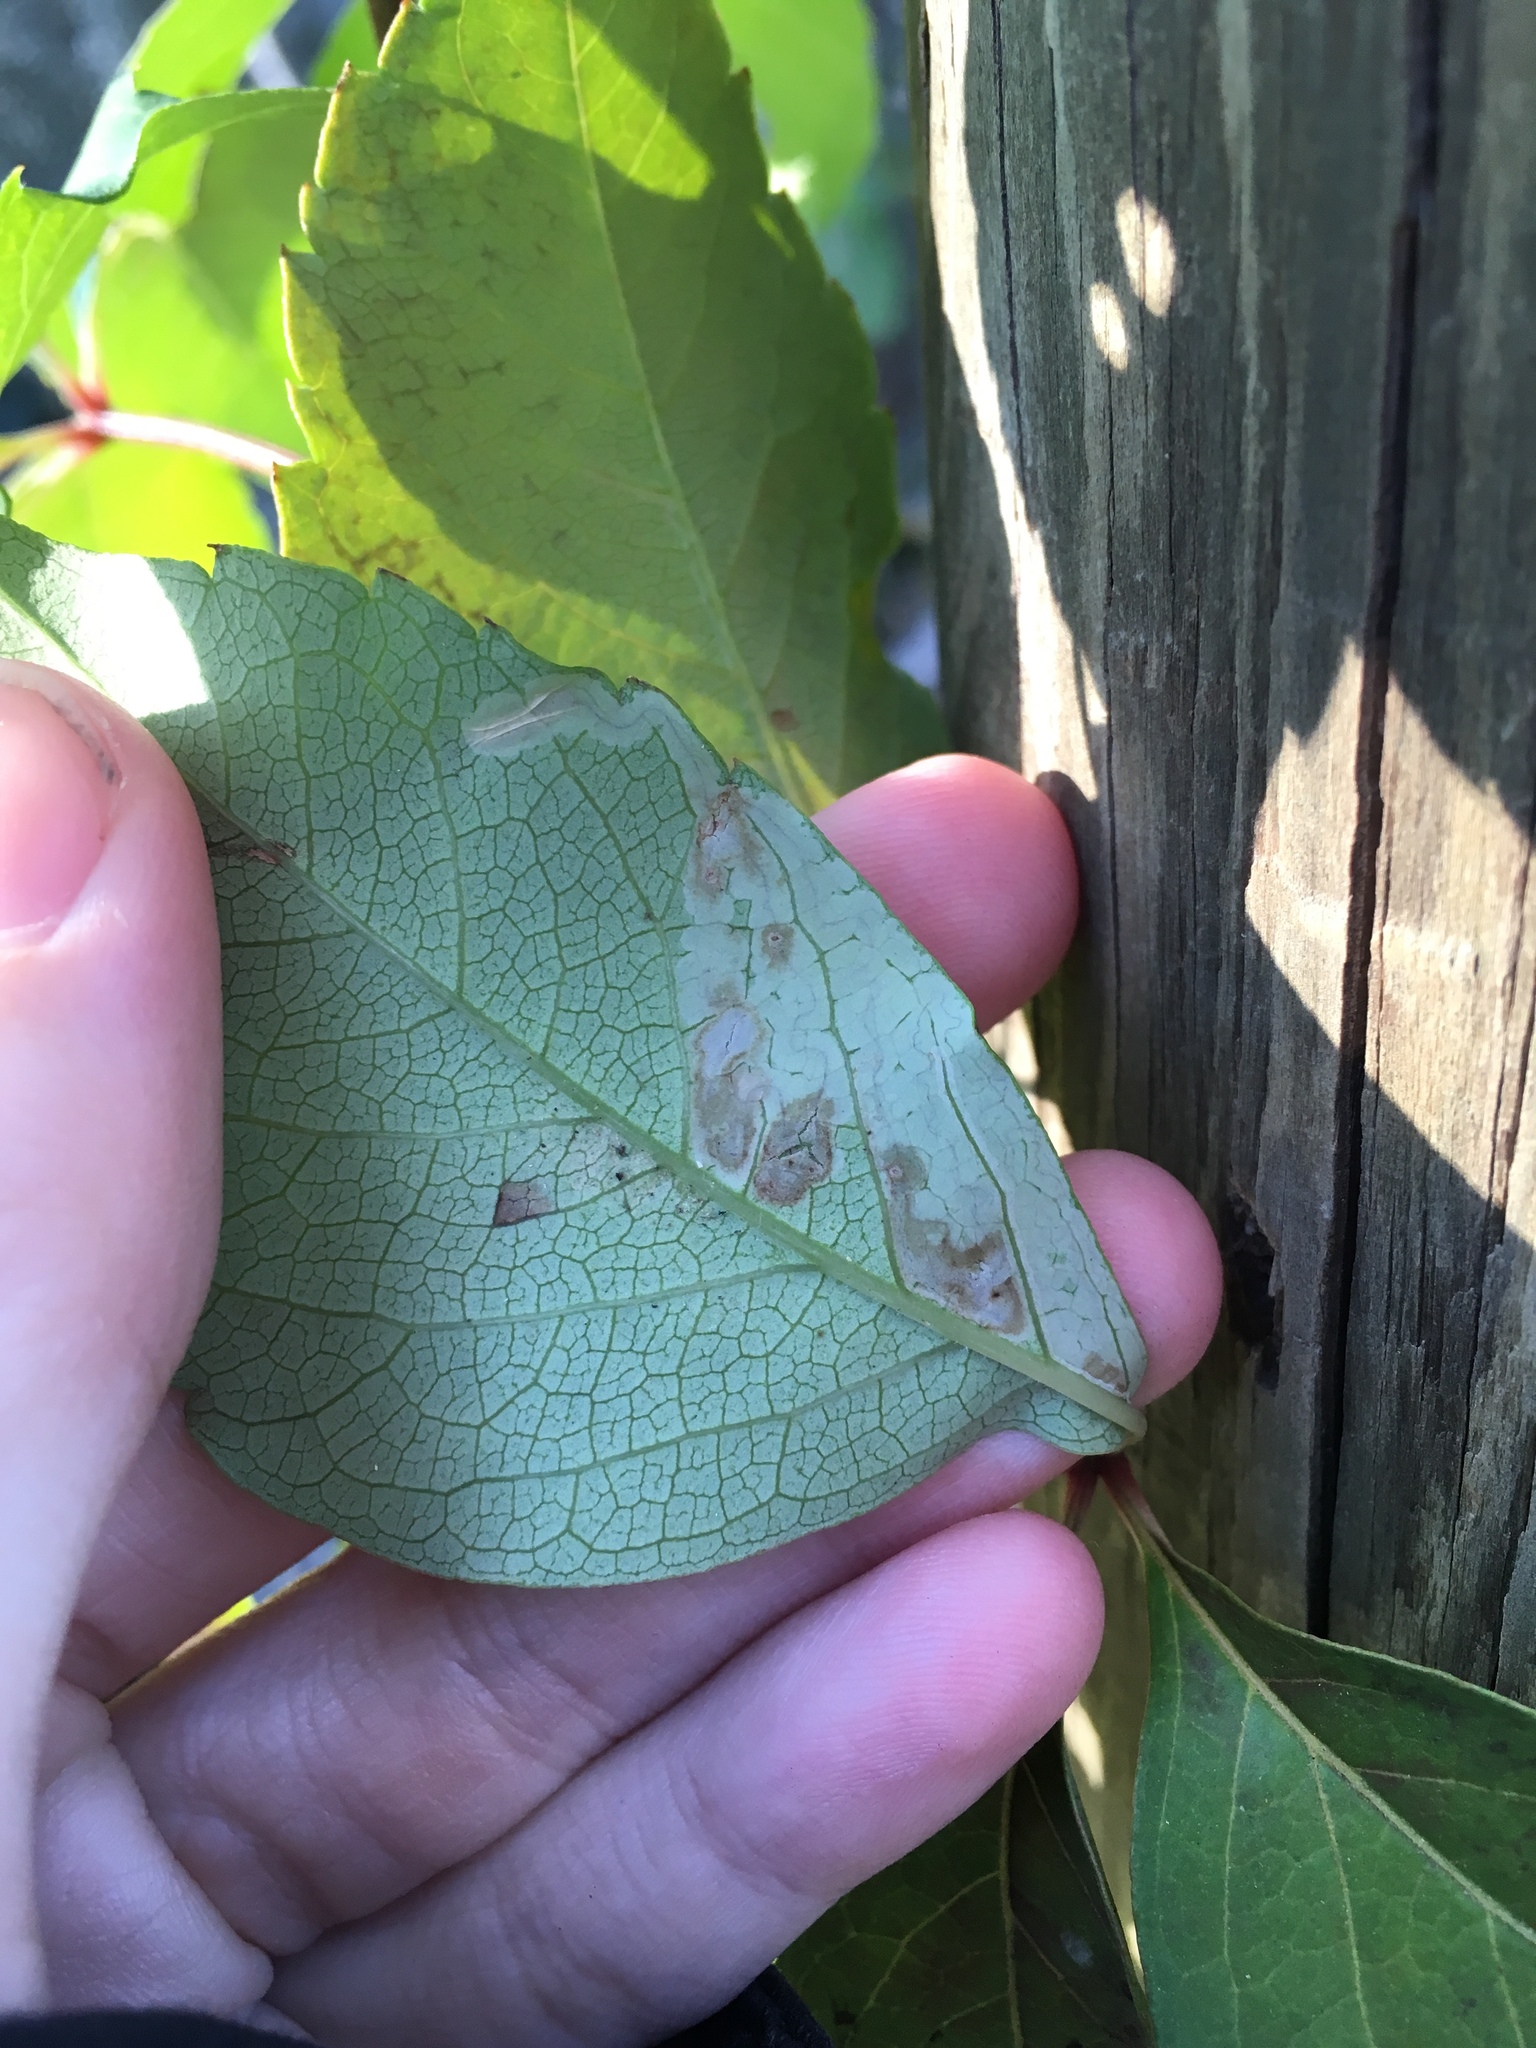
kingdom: Animalia
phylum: Arthropoda
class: Insecta
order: Lepidoptera
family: Gracillariidae
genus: Phyllocnistis
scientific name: Phyllocnistis ampelopsiella
